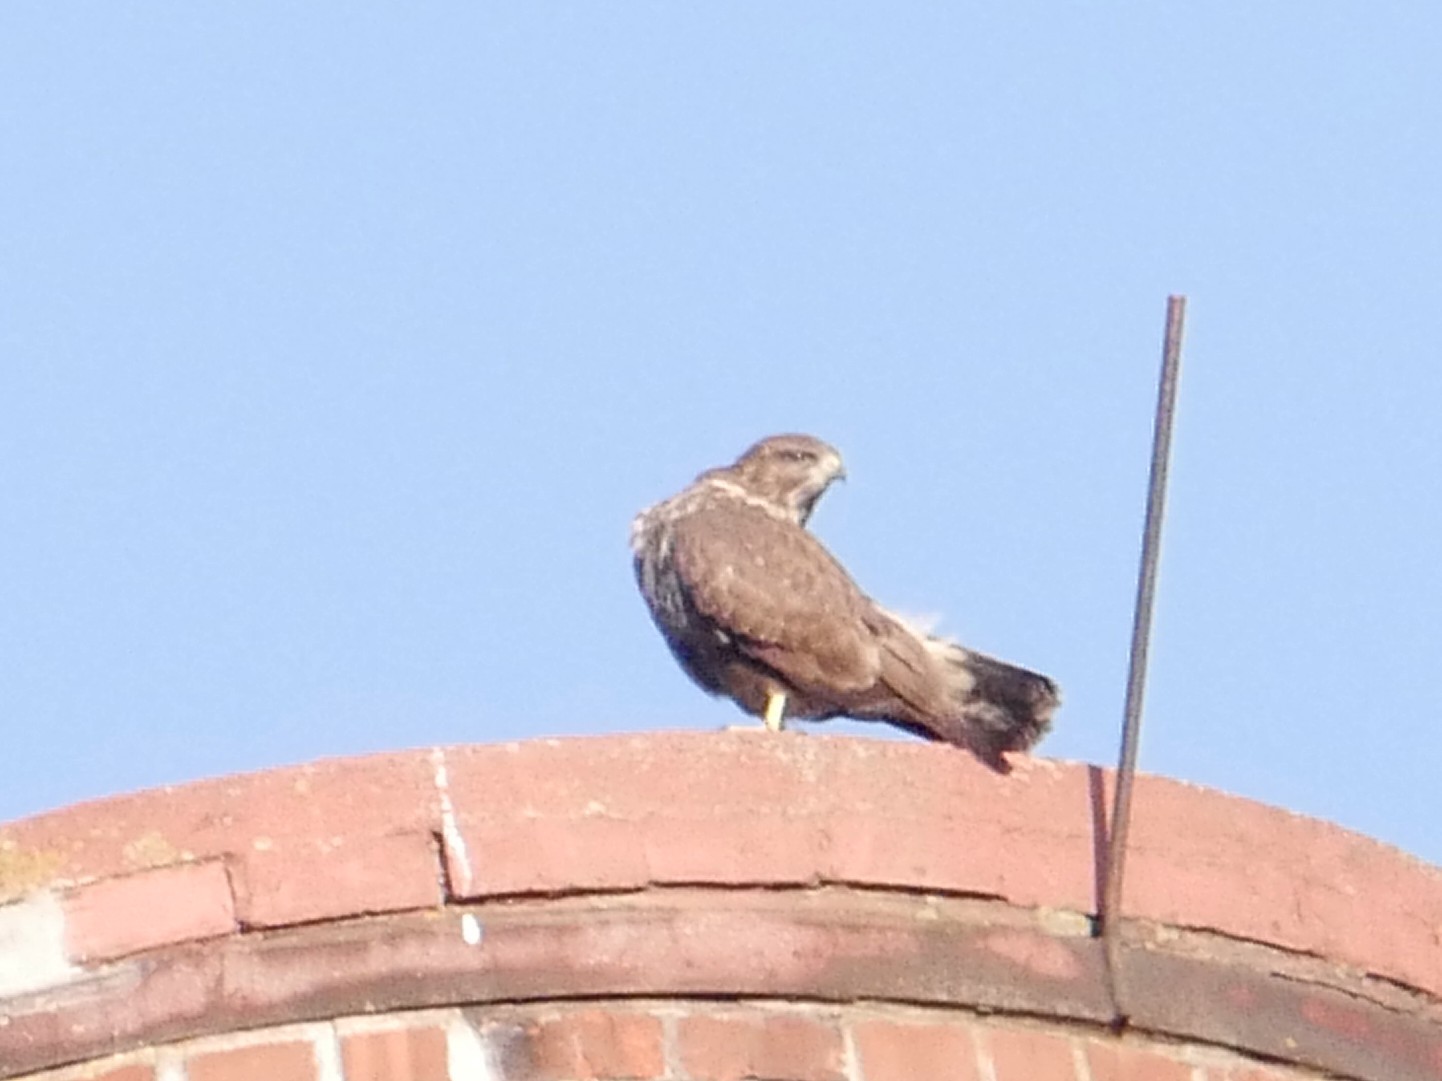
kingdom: Animalia
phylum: Chordata
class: Aves
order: Accipitriformes
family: Accipitridae
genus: Buteo
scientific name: Buteo buteo
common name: Common buzzard
